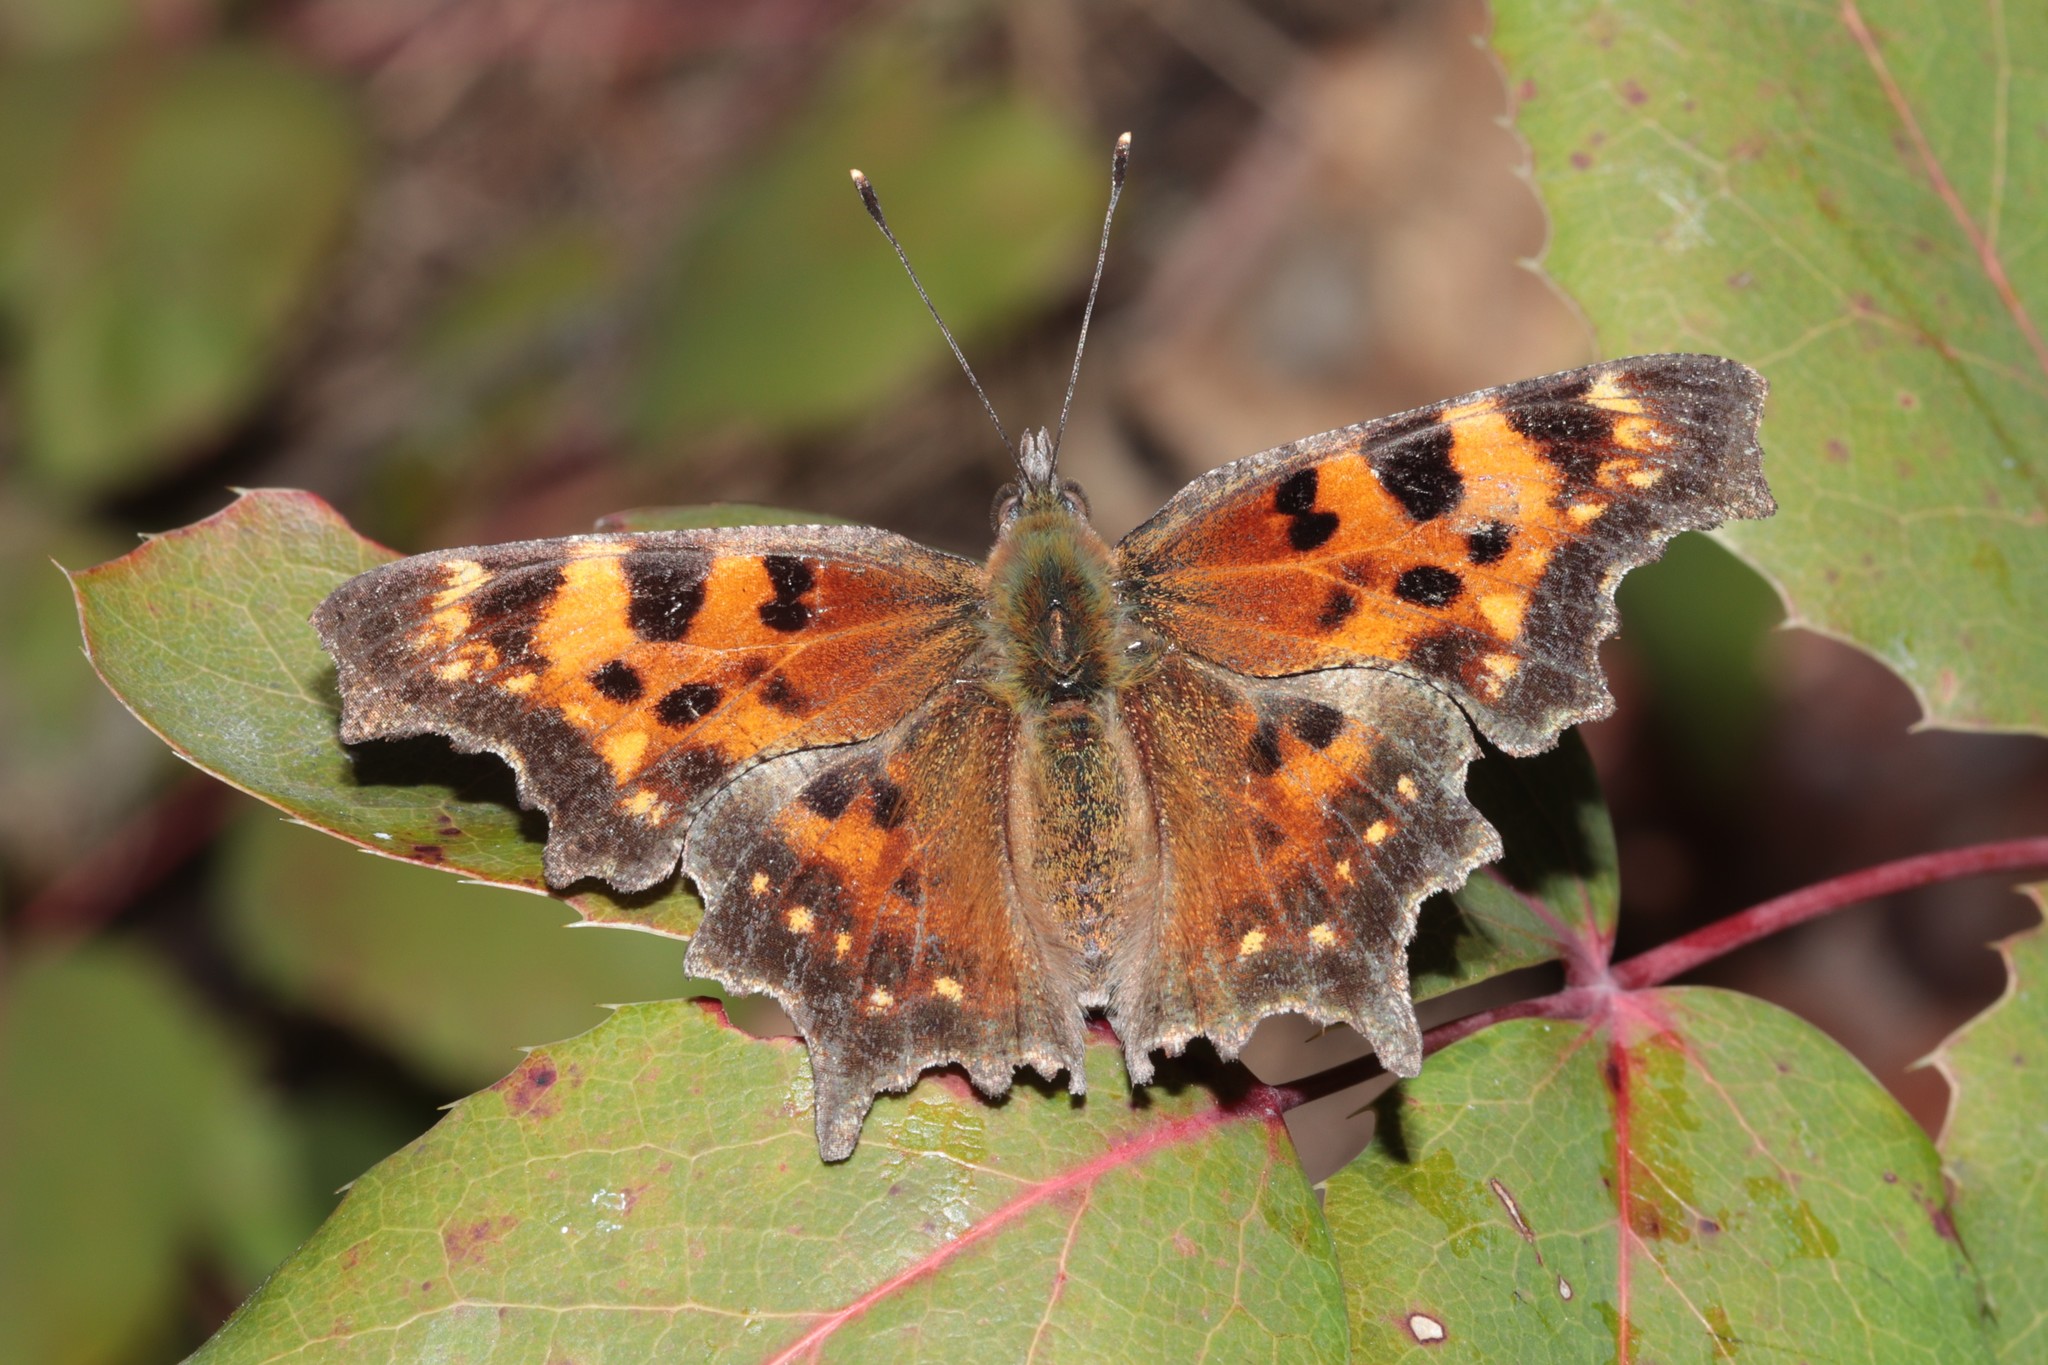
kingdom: Animalia
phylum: Arthropoda
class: Insecta
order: Lepidoptera
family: Nymphalidae
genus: Polygonia
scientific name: Polygonia faunus
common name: Green comma
